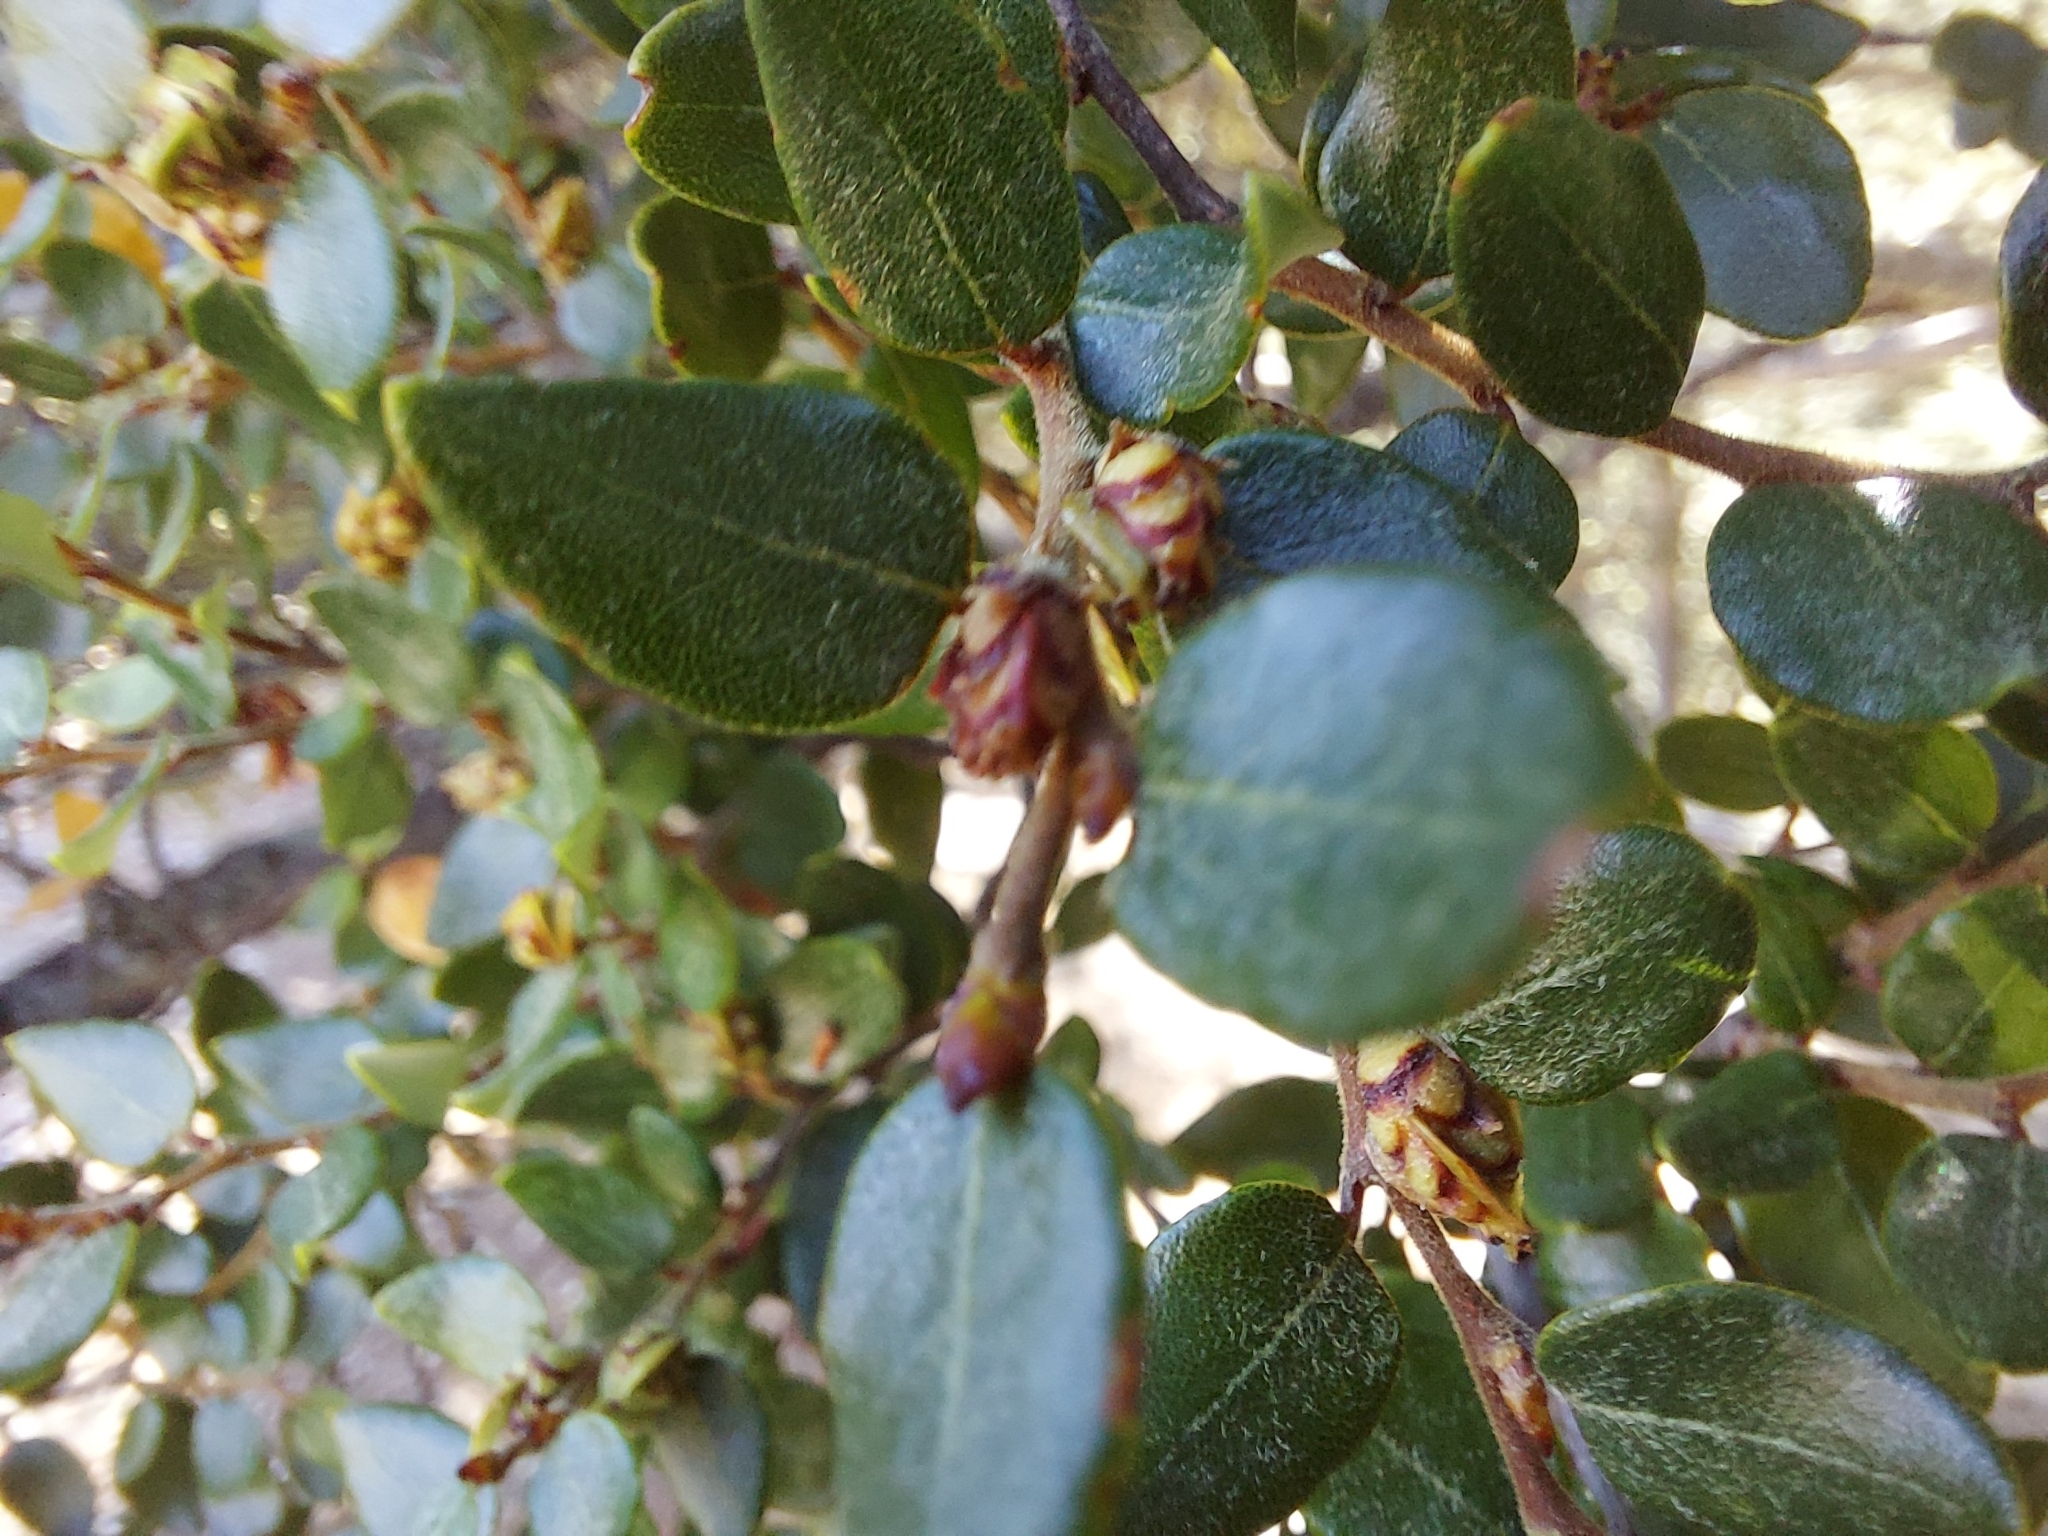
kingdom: Plantae
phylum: Tracheophyta
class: Magnoliopsida
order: Fagales
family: Nothofagaceae
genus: Nothofagus
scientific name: Nothofagus cliffortioides
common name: Mountain beech
